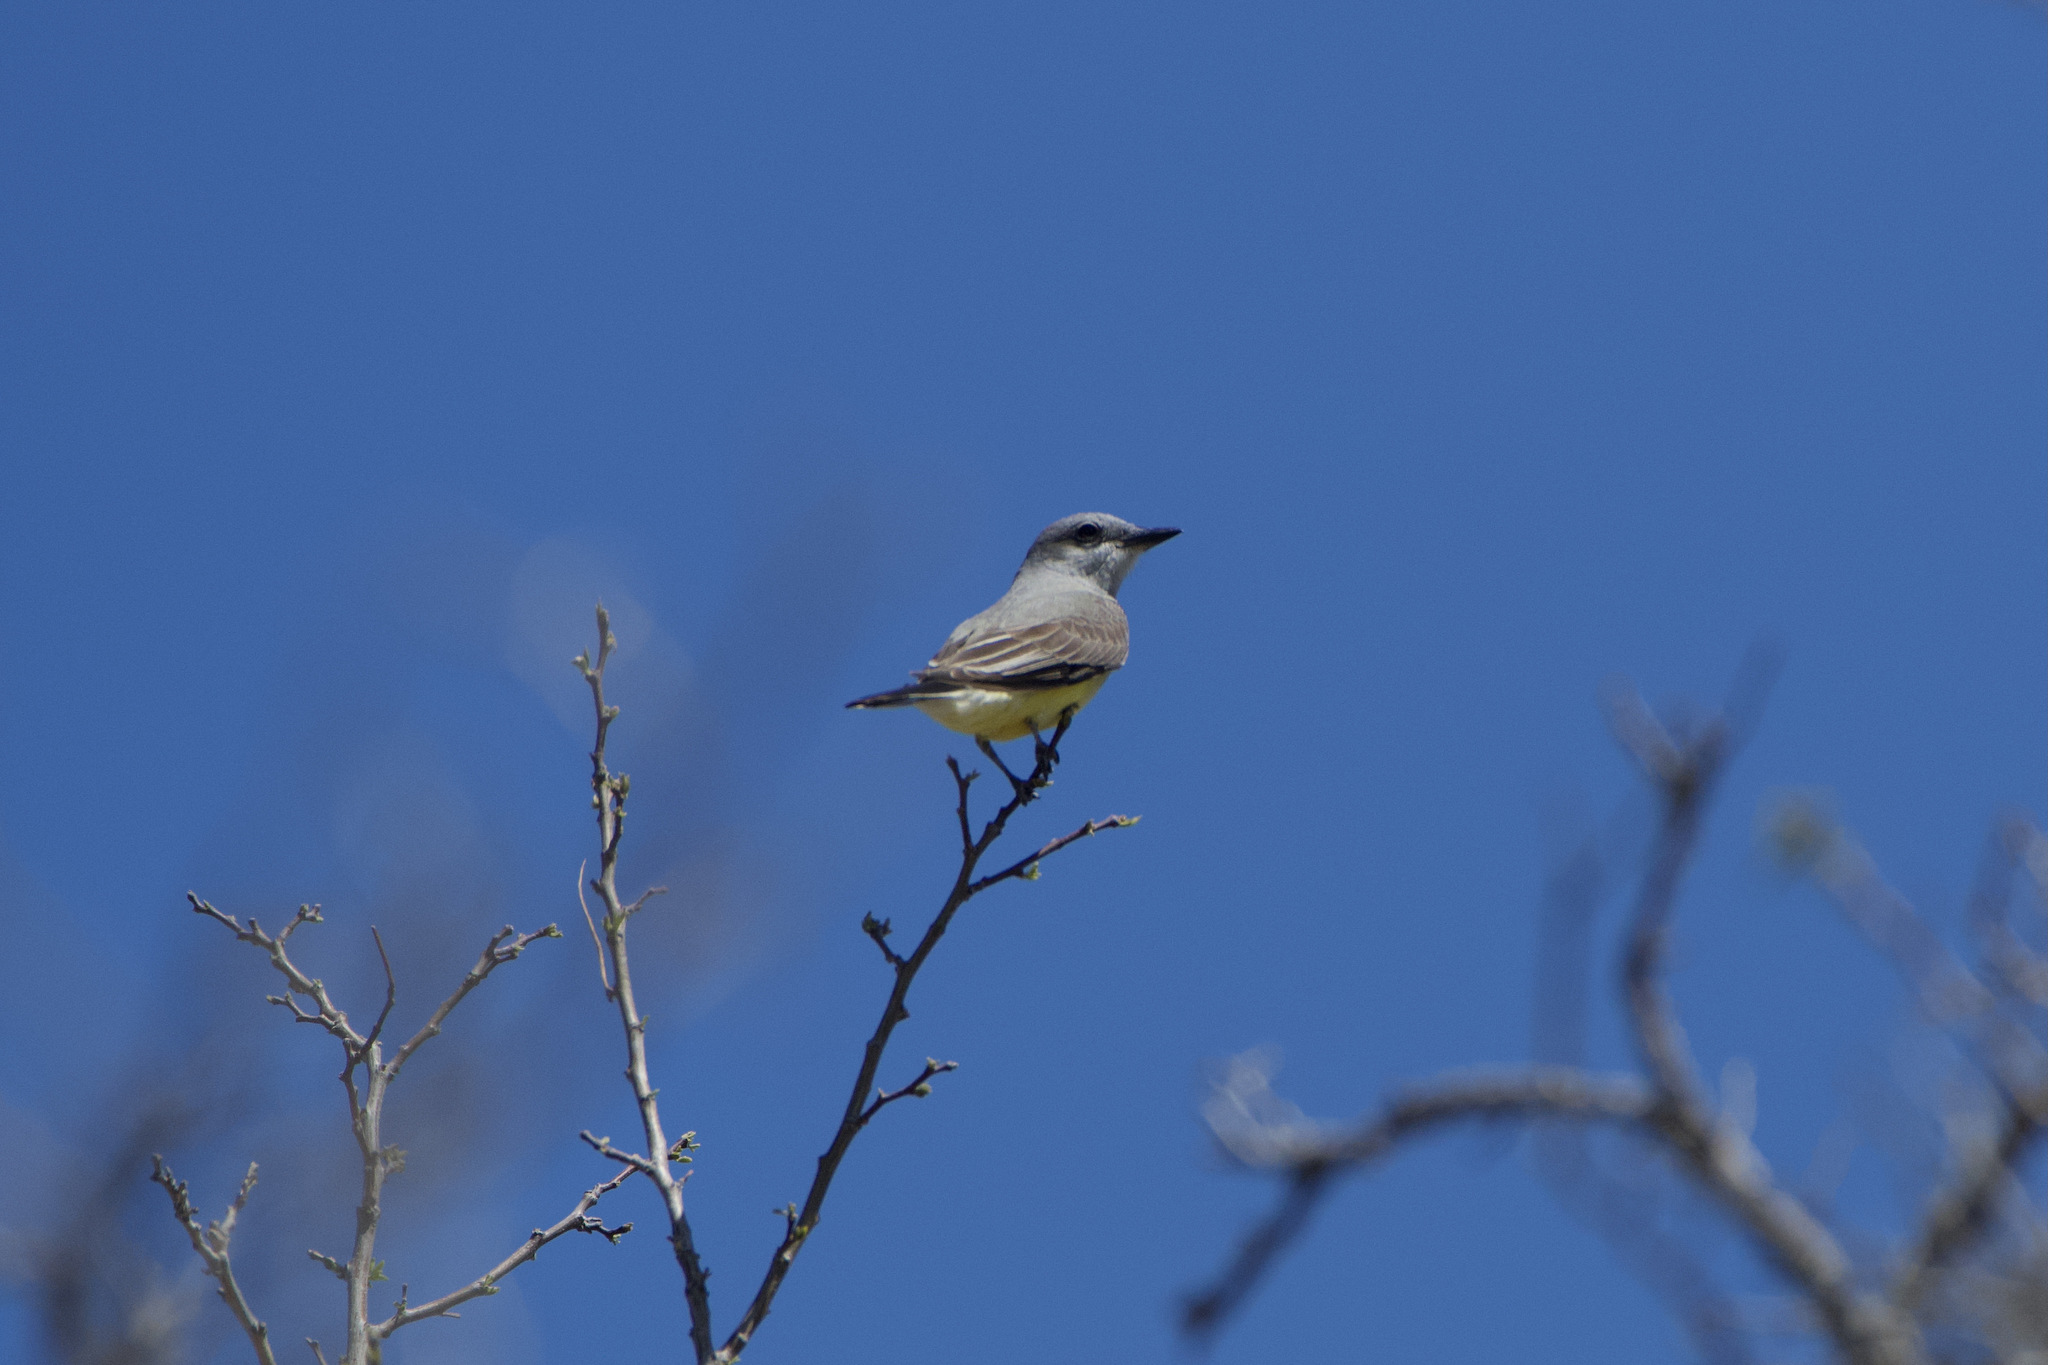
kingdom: Animalia
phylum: Chordata
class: Aves
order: Passeriformes
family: Tyrannidae
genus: Tyrannus
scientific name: Tyrannus verticalis
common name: Western kingbird
